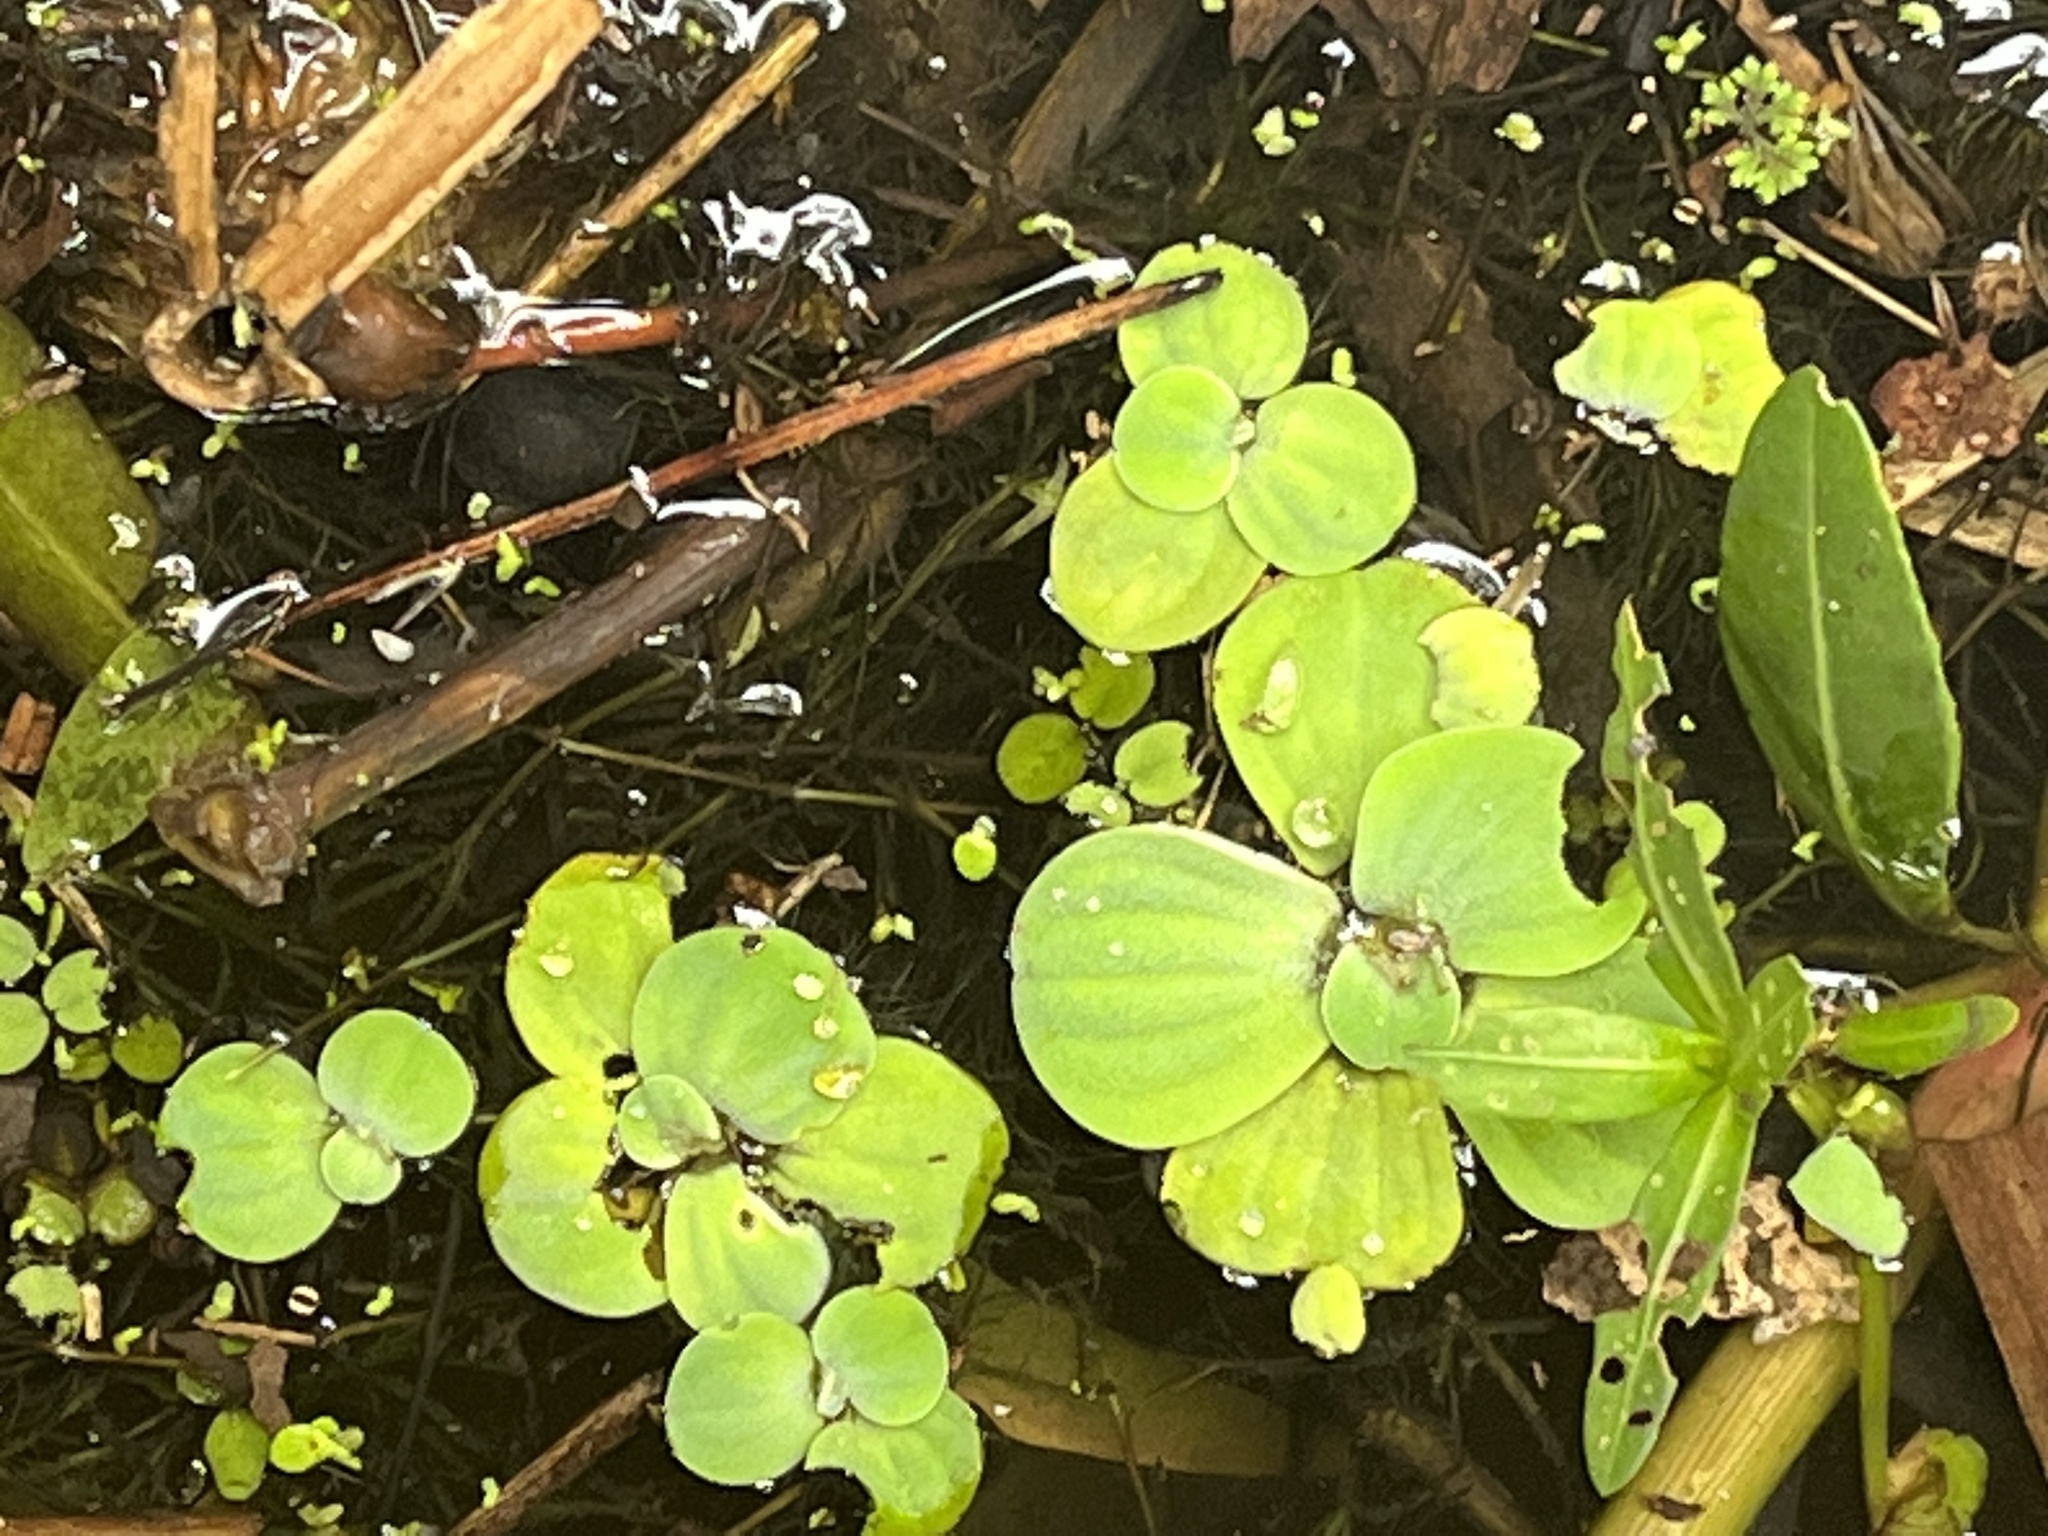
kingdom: Plantae
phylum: Tracheophyta
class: Liliopsida
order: Alismatales
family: Araceae
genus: Pistia
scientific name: Pistia stratiotes
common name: Water lettuce
